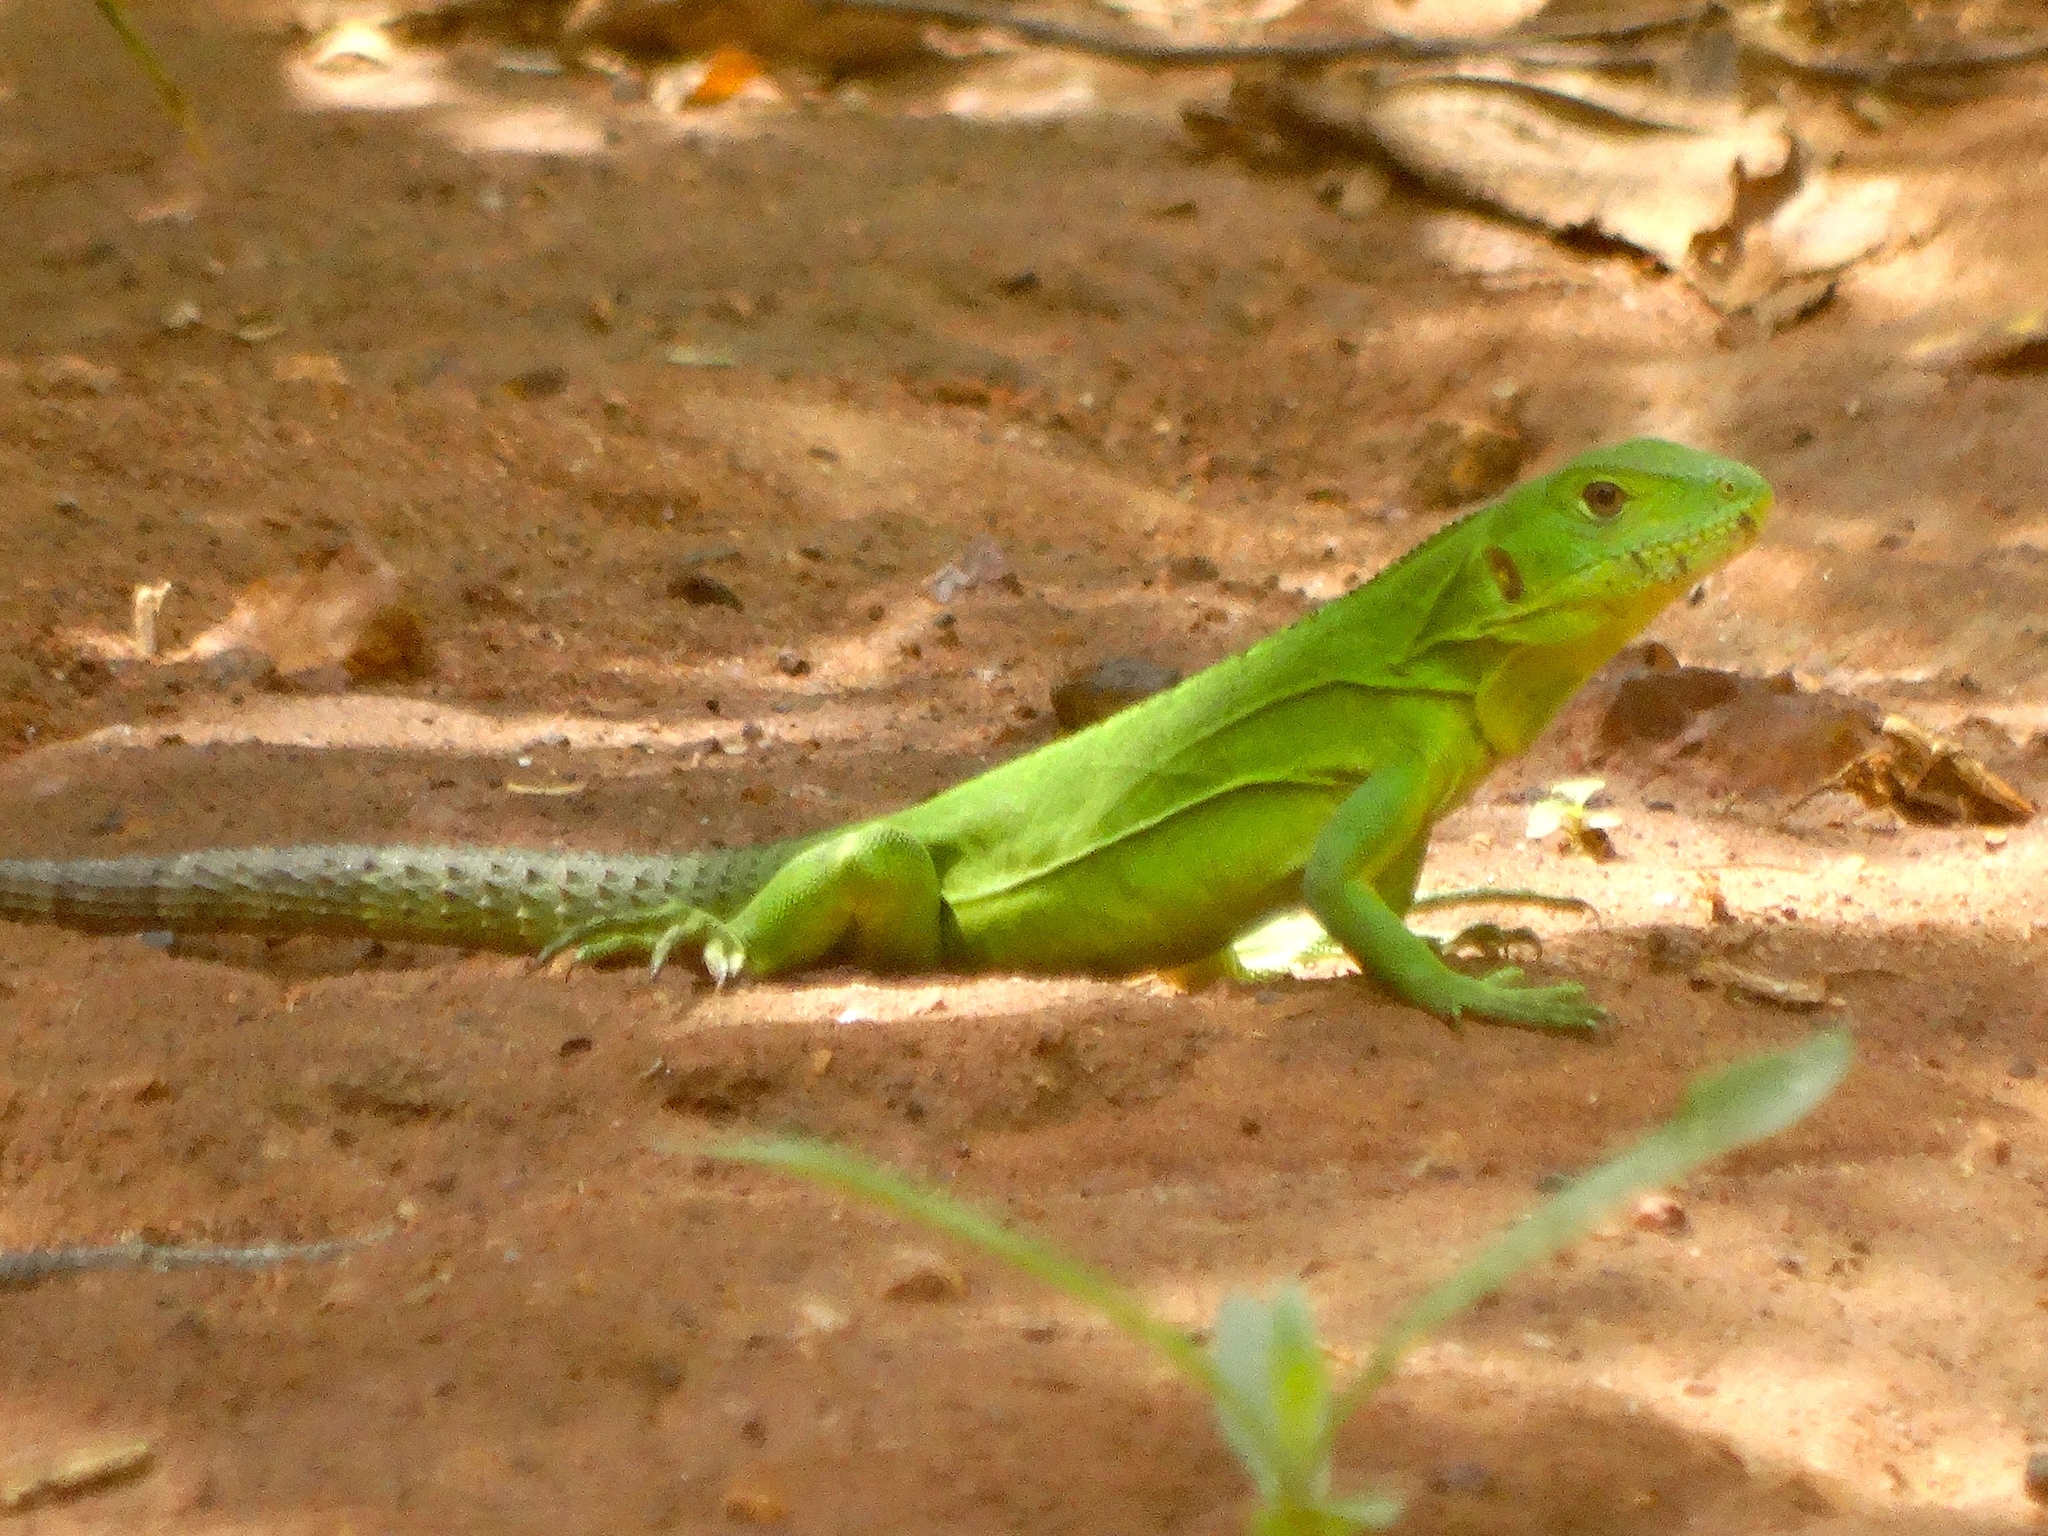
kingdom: Animalia
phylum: Chordata
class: Squamata
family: Iguanidae
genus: Ctenosaura
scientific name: Ctenosaura pectinata
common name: Guerreran spiny-tailed iguana
